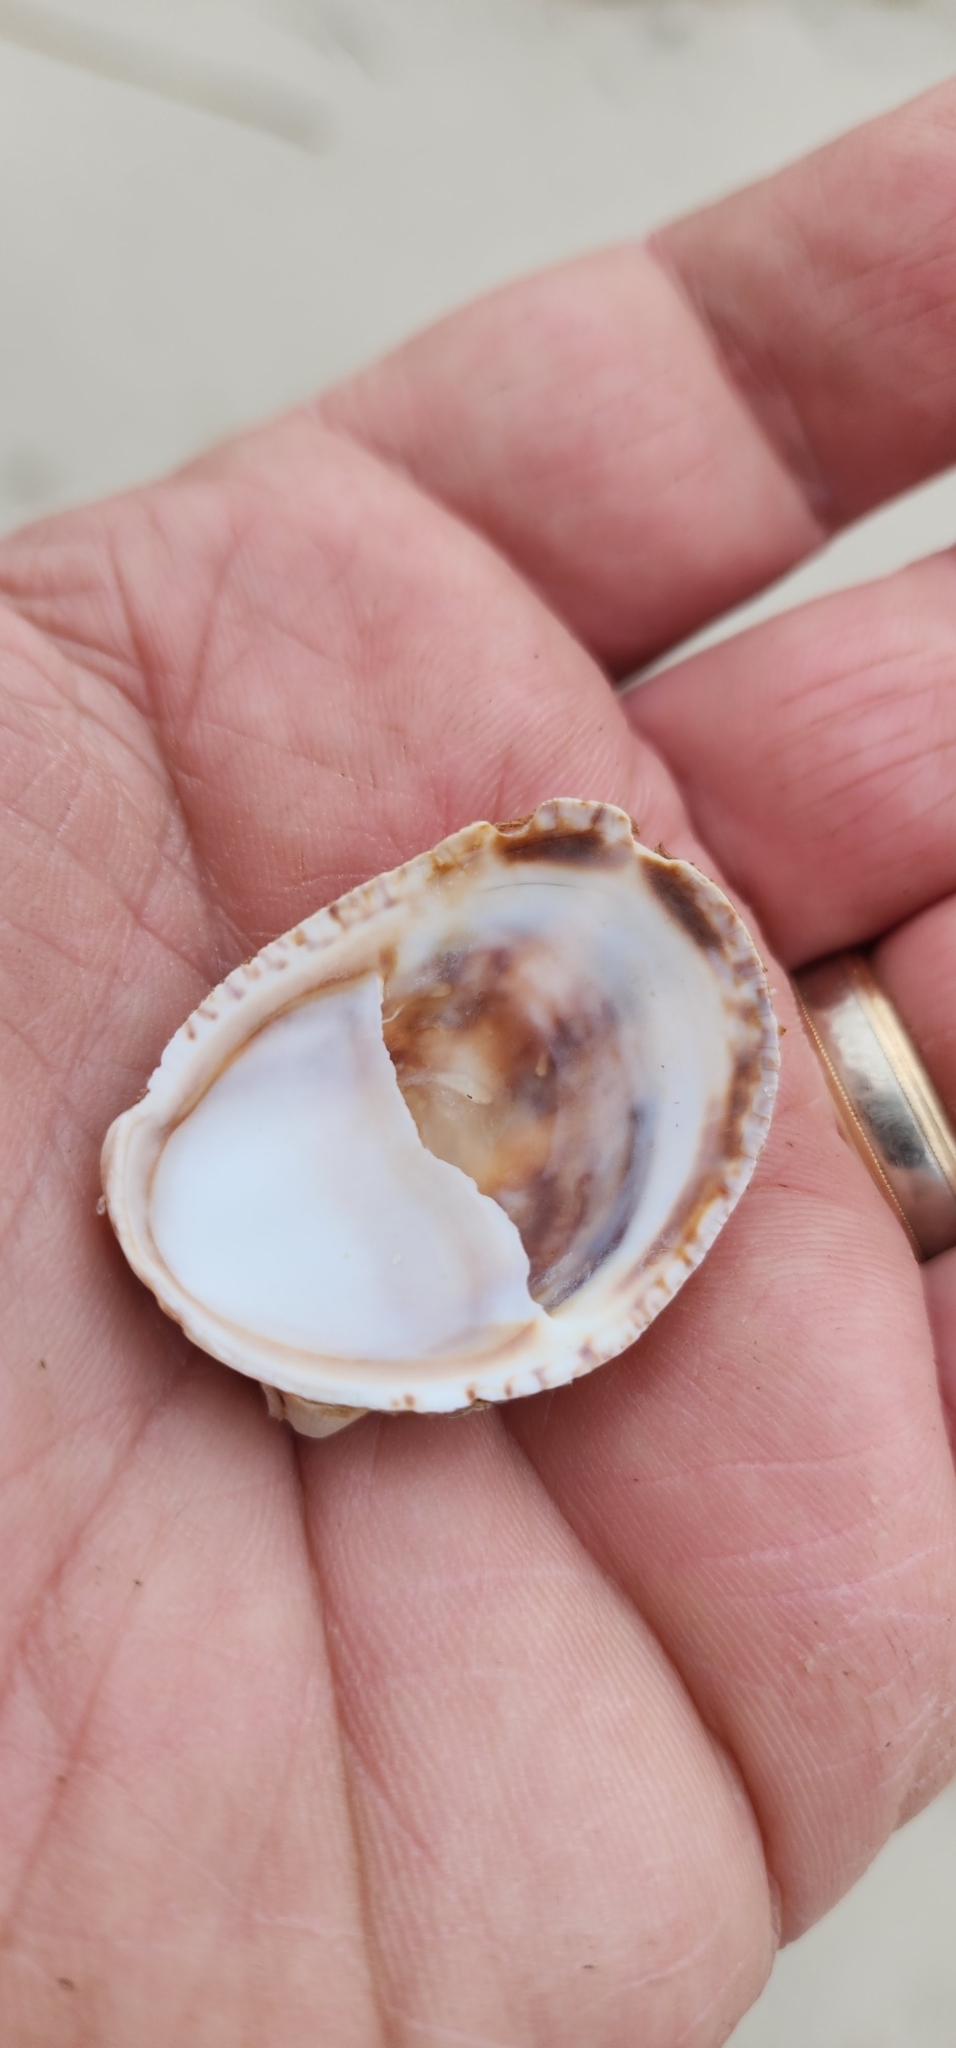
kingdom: Animalia
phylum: Mollusca
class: Gastropoda
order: Littorinimorpha
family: Calyptraeidae
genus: Crepidula
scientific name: Crepidula fornicata
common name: Slipper limpet
